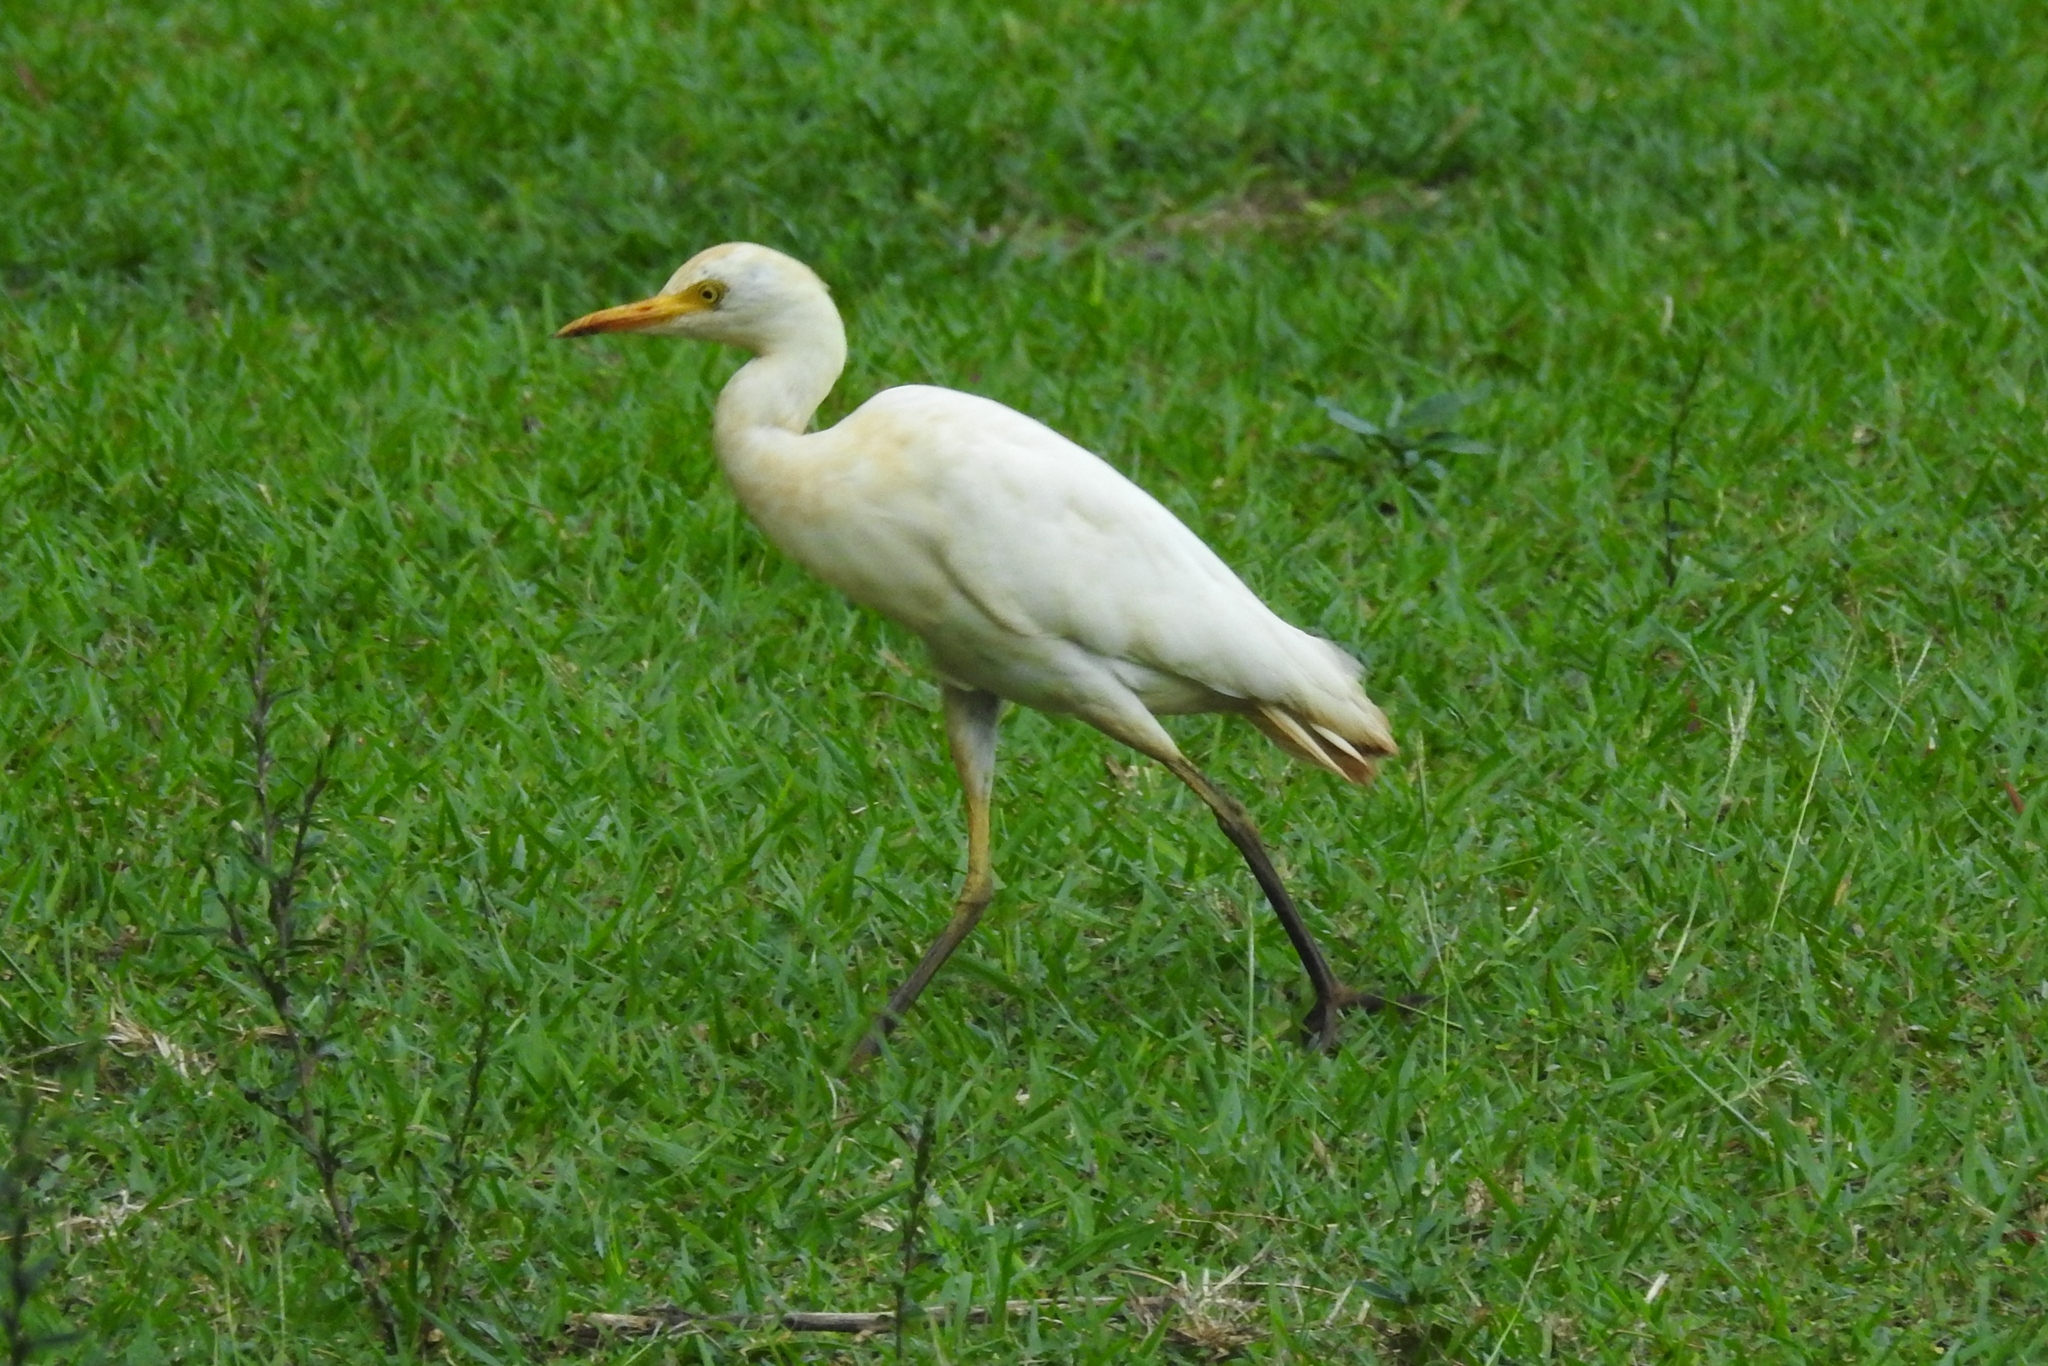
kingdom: Animalia
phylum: Chordata
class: Aves
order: Pelecaniformes
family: Ardeidae
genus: Bubulcus
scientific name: Bubulcus ibis
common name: Cattle egret
